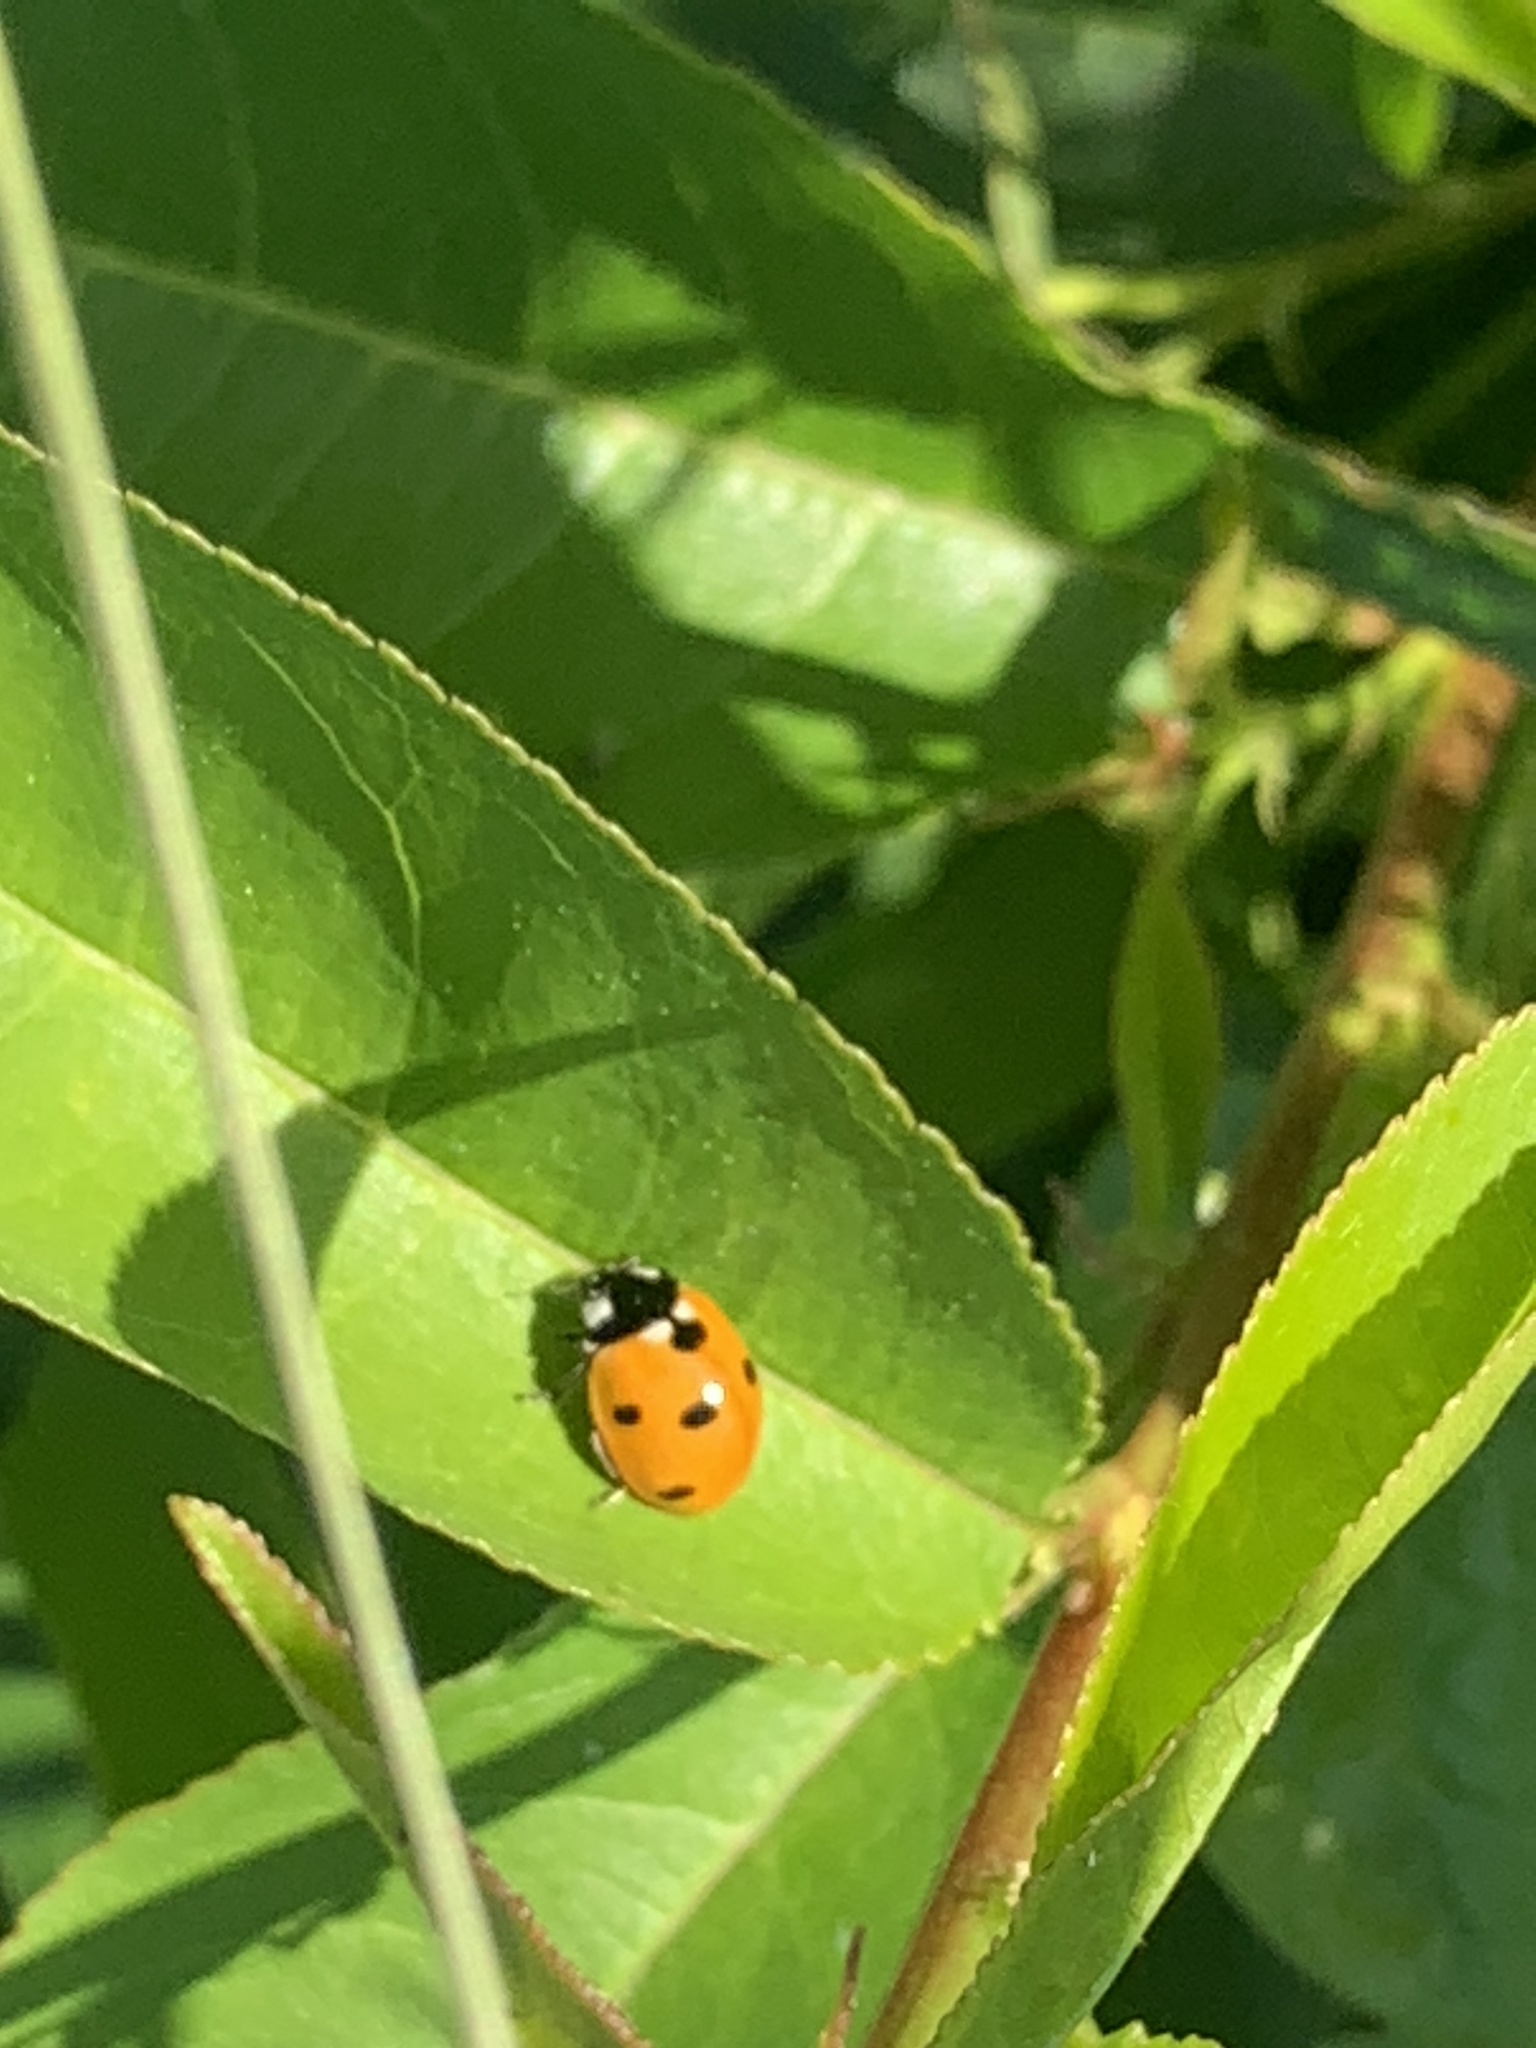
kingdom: Animalia
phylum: Arthropoda
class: Insecta
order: Coleoptera
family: Coccinellidae
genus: Coccinella
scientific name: Coccinella septempunctata
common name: Sevenspotted lady beetle
